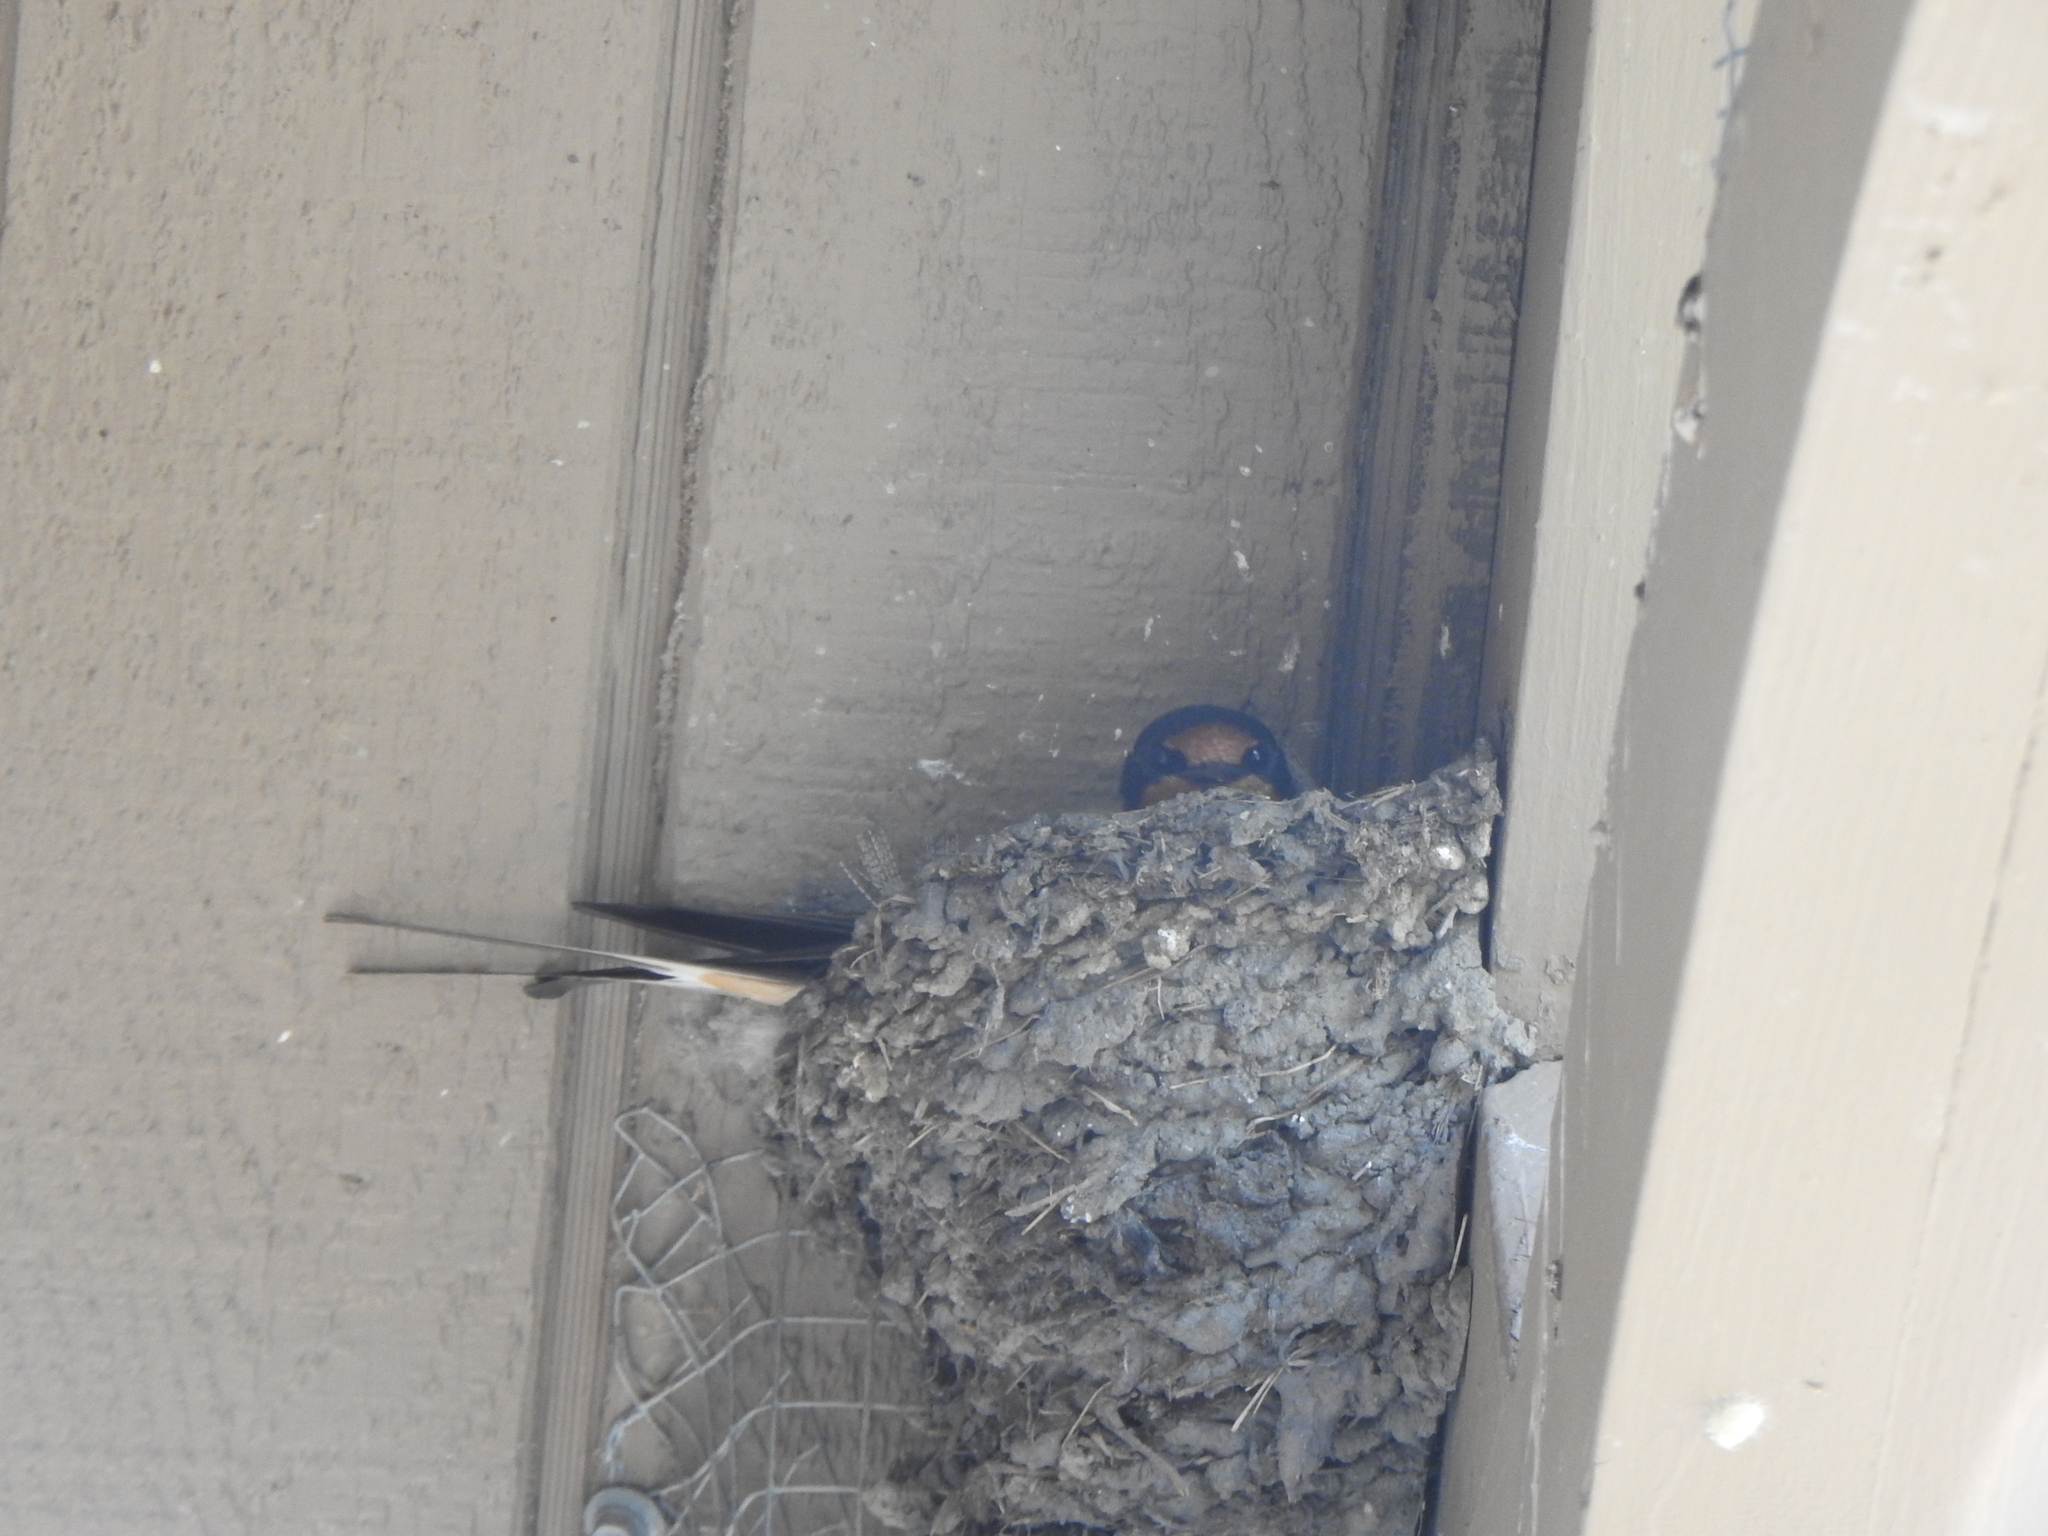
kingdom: Animalia
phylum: Chordata
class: Aves
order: Passeriformes
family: Hirundinidae
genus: Hirundo
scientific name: Hirundo rustica
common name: Barn swallow
